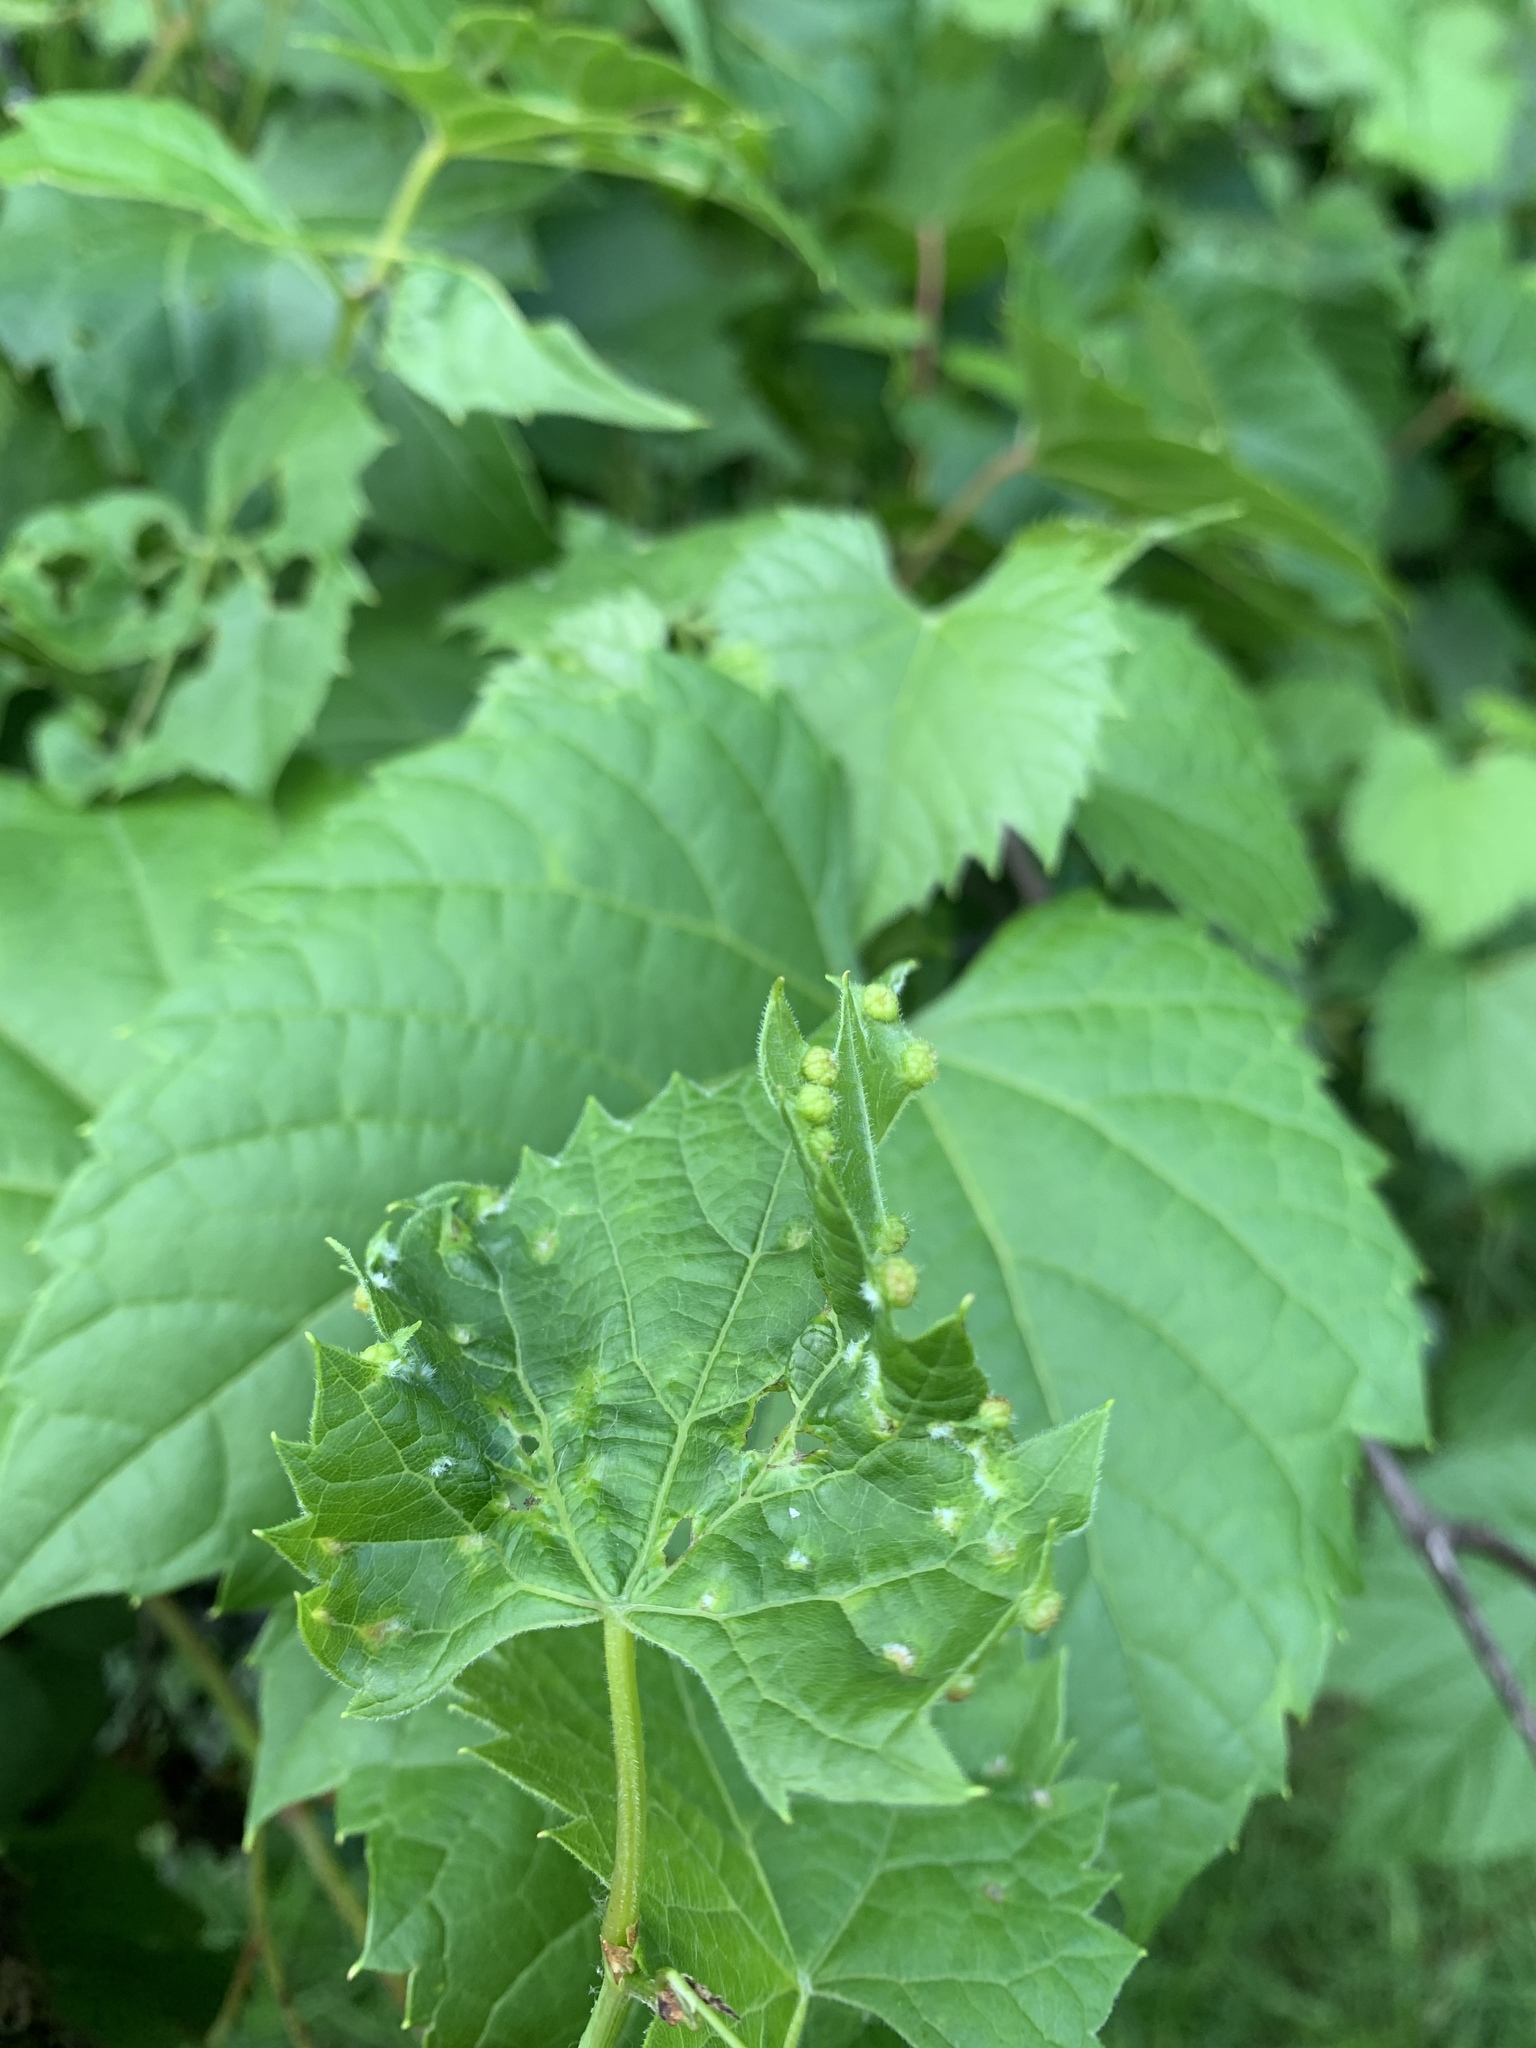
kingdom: Animalia
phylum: Arthropoda
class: Insecta
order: Hemiptera
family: Phylloxeridae
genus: Daktulosphaira
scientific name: Daktulosphaira vitifoliae
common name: Grape phylloxera
